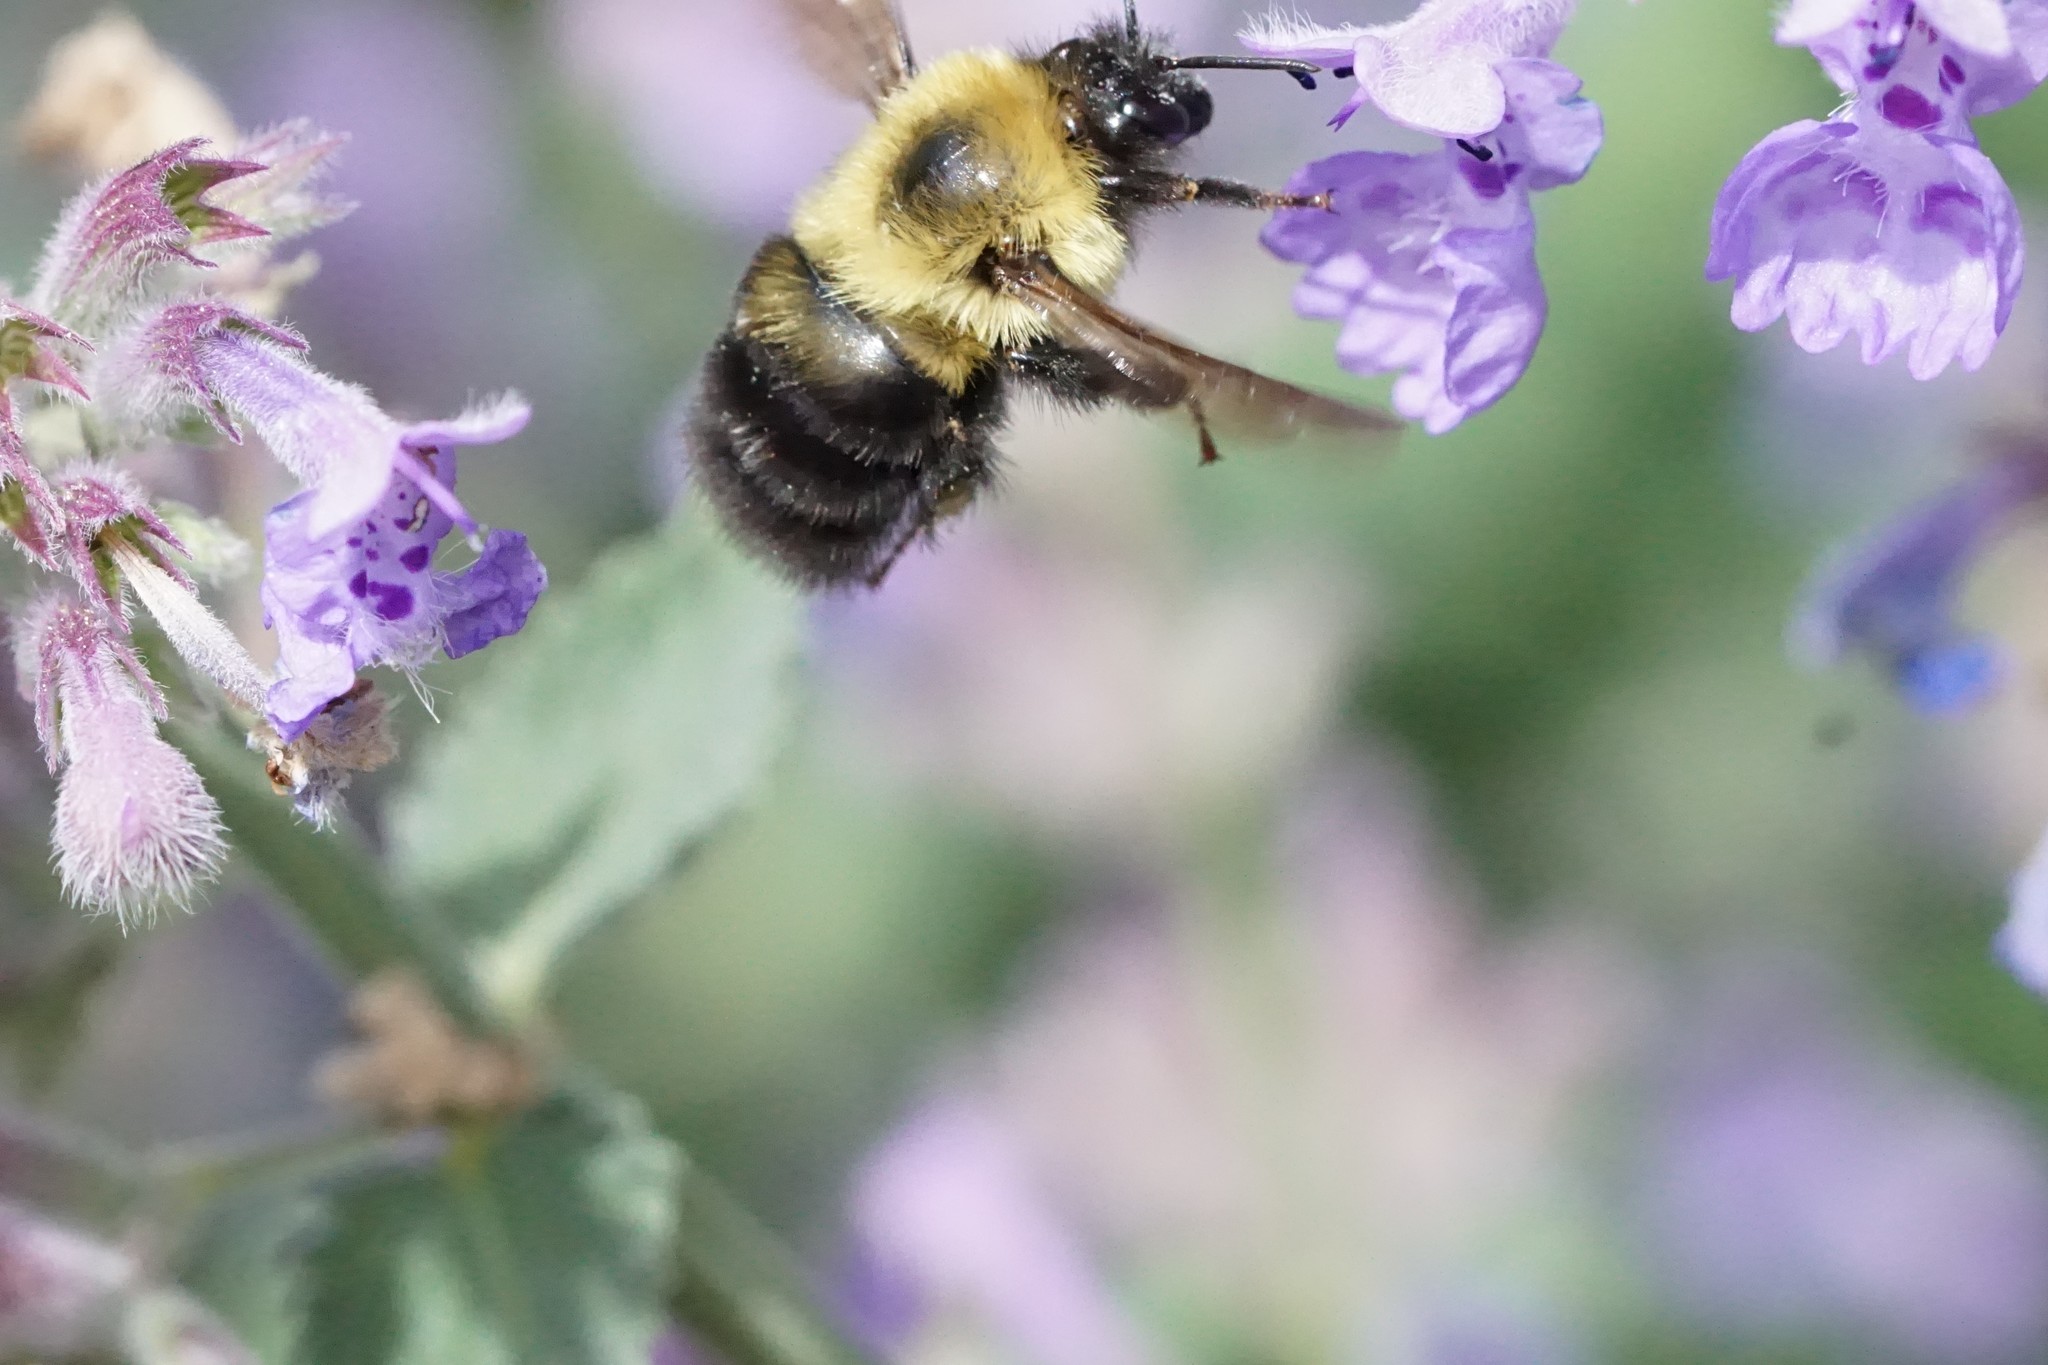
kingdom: Animalia
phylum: Arthropoda
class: Insecta
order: Hymenoptera
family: Apidae
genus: Bombus
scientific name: Bombus bimaculatus
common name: Two-spotted bumble bee
